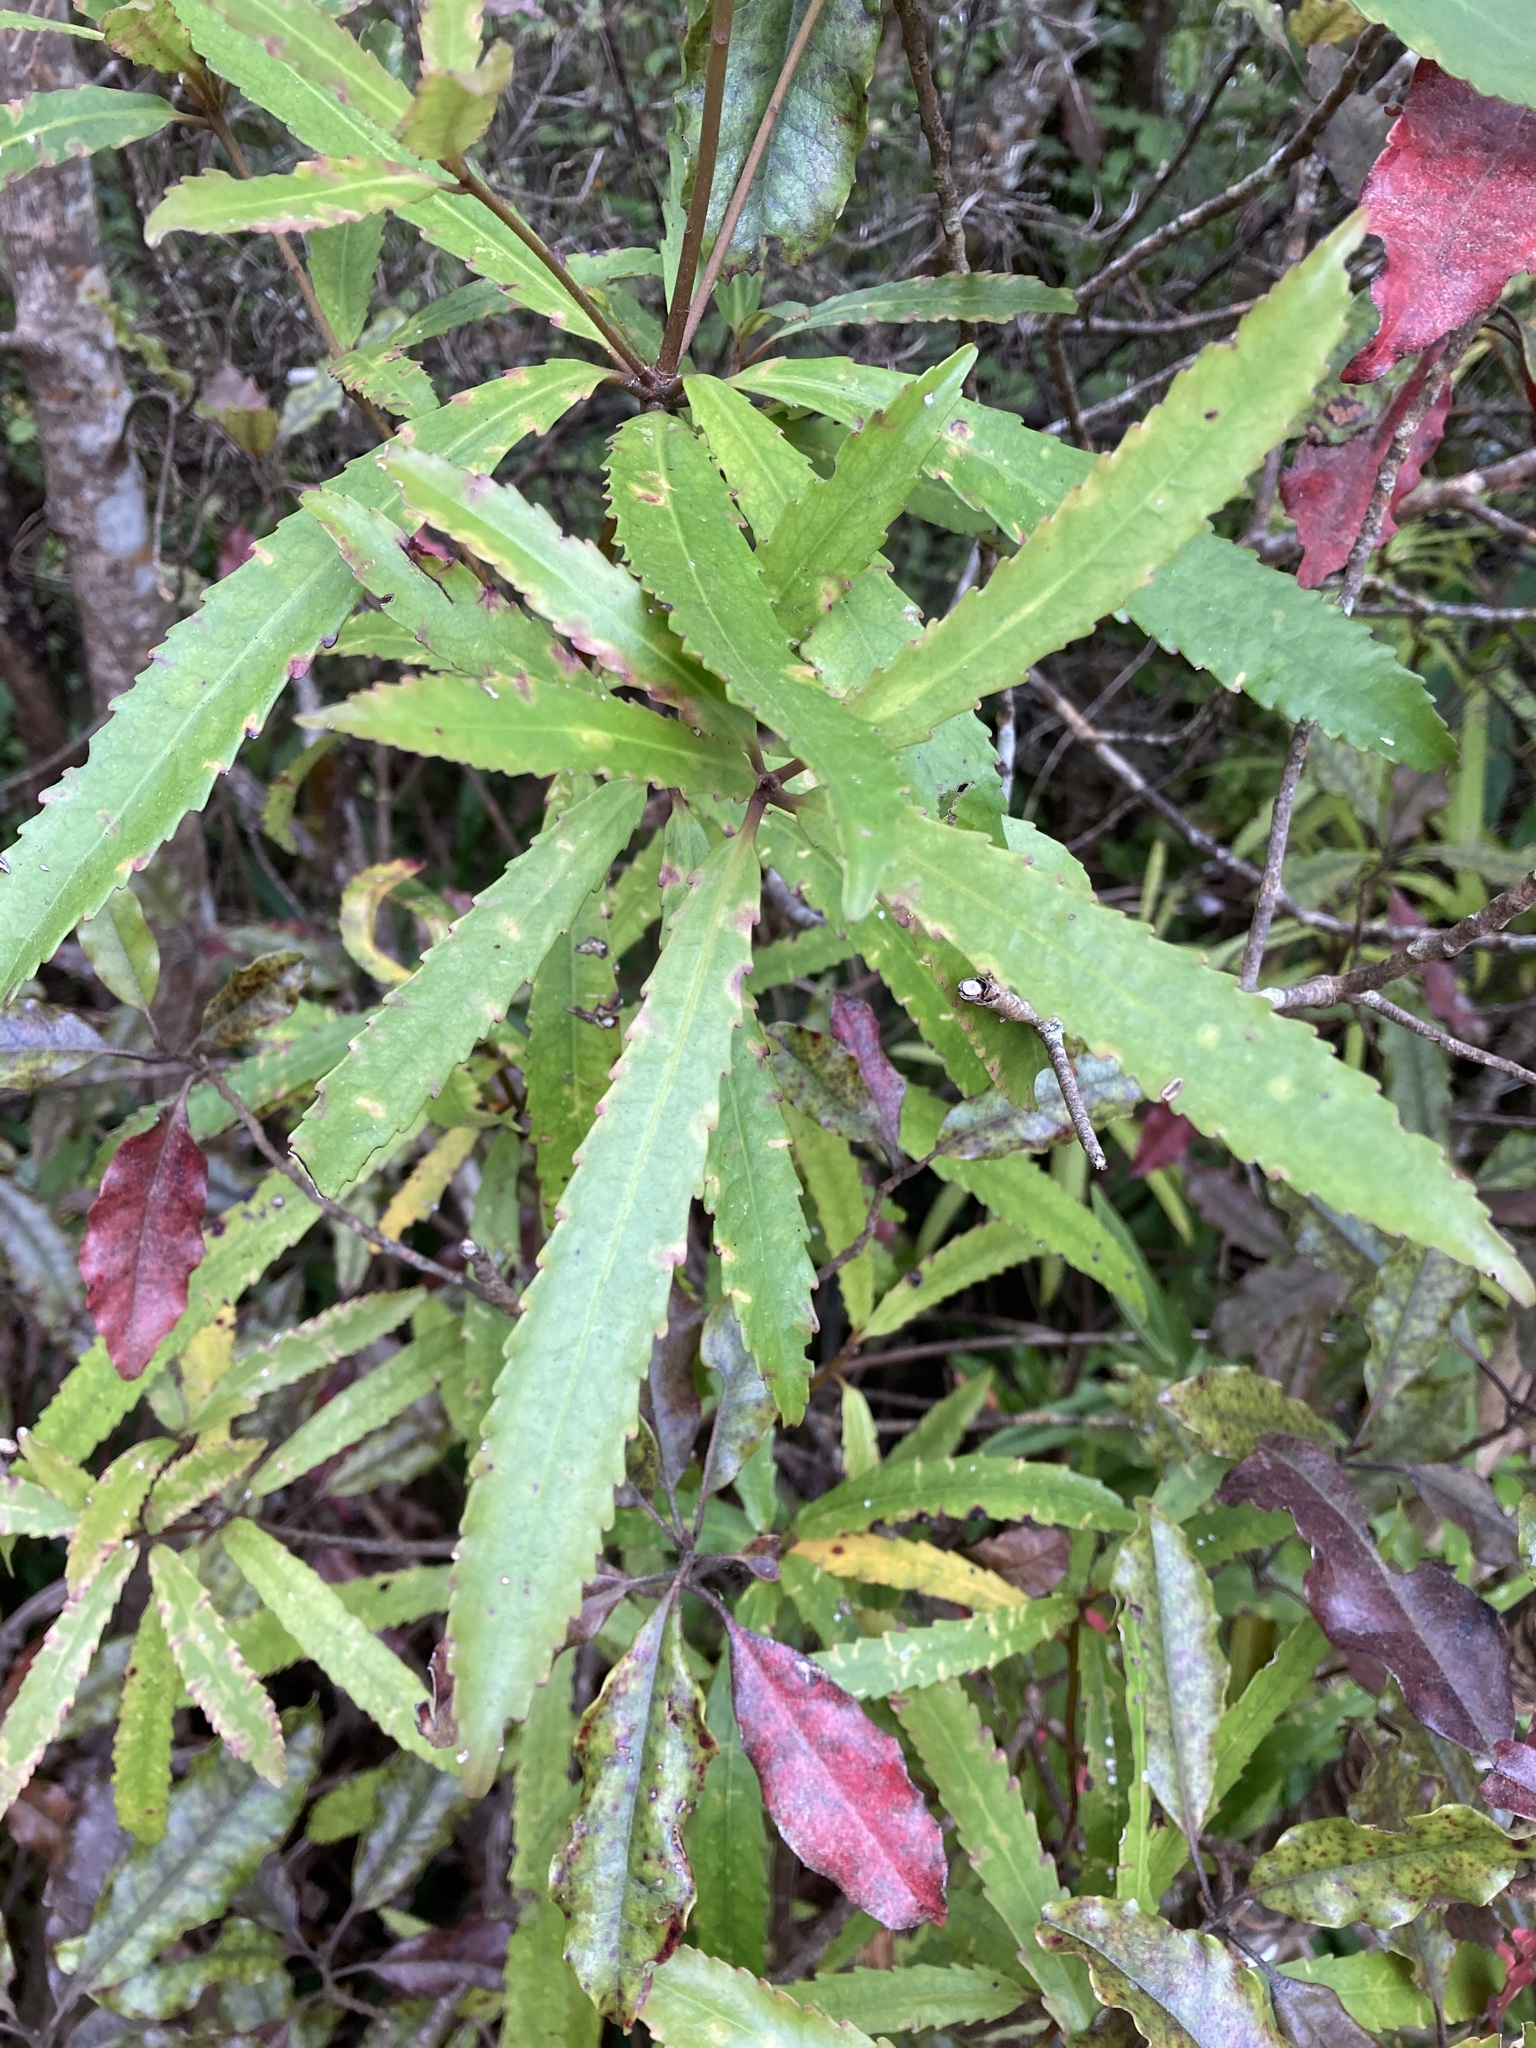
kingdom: Plantae
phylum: Tracheophyta
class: Magnoliopsida
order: Crossosomatales
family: Ixerbaceae
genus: Ixerba
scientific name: Ixerba brexioides
